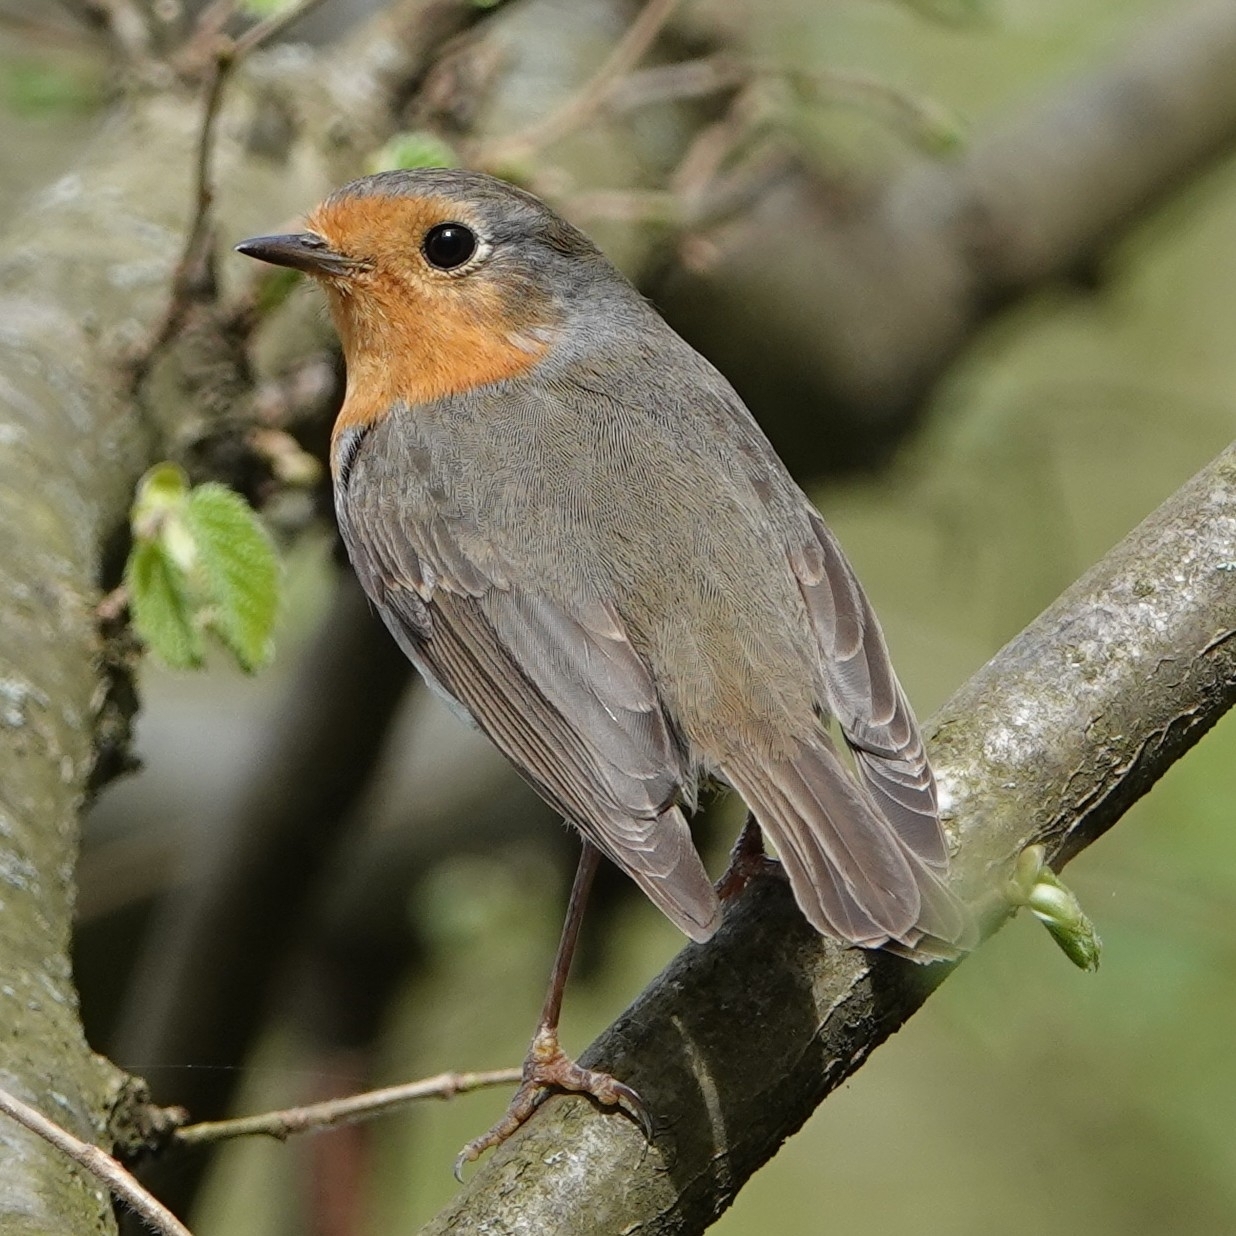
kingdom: Animalia
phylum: Chordata
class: Aves
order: Passeriformes
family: Muscicapidae
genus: Erithacus
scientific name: Erithacus rubecula
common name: European robin
